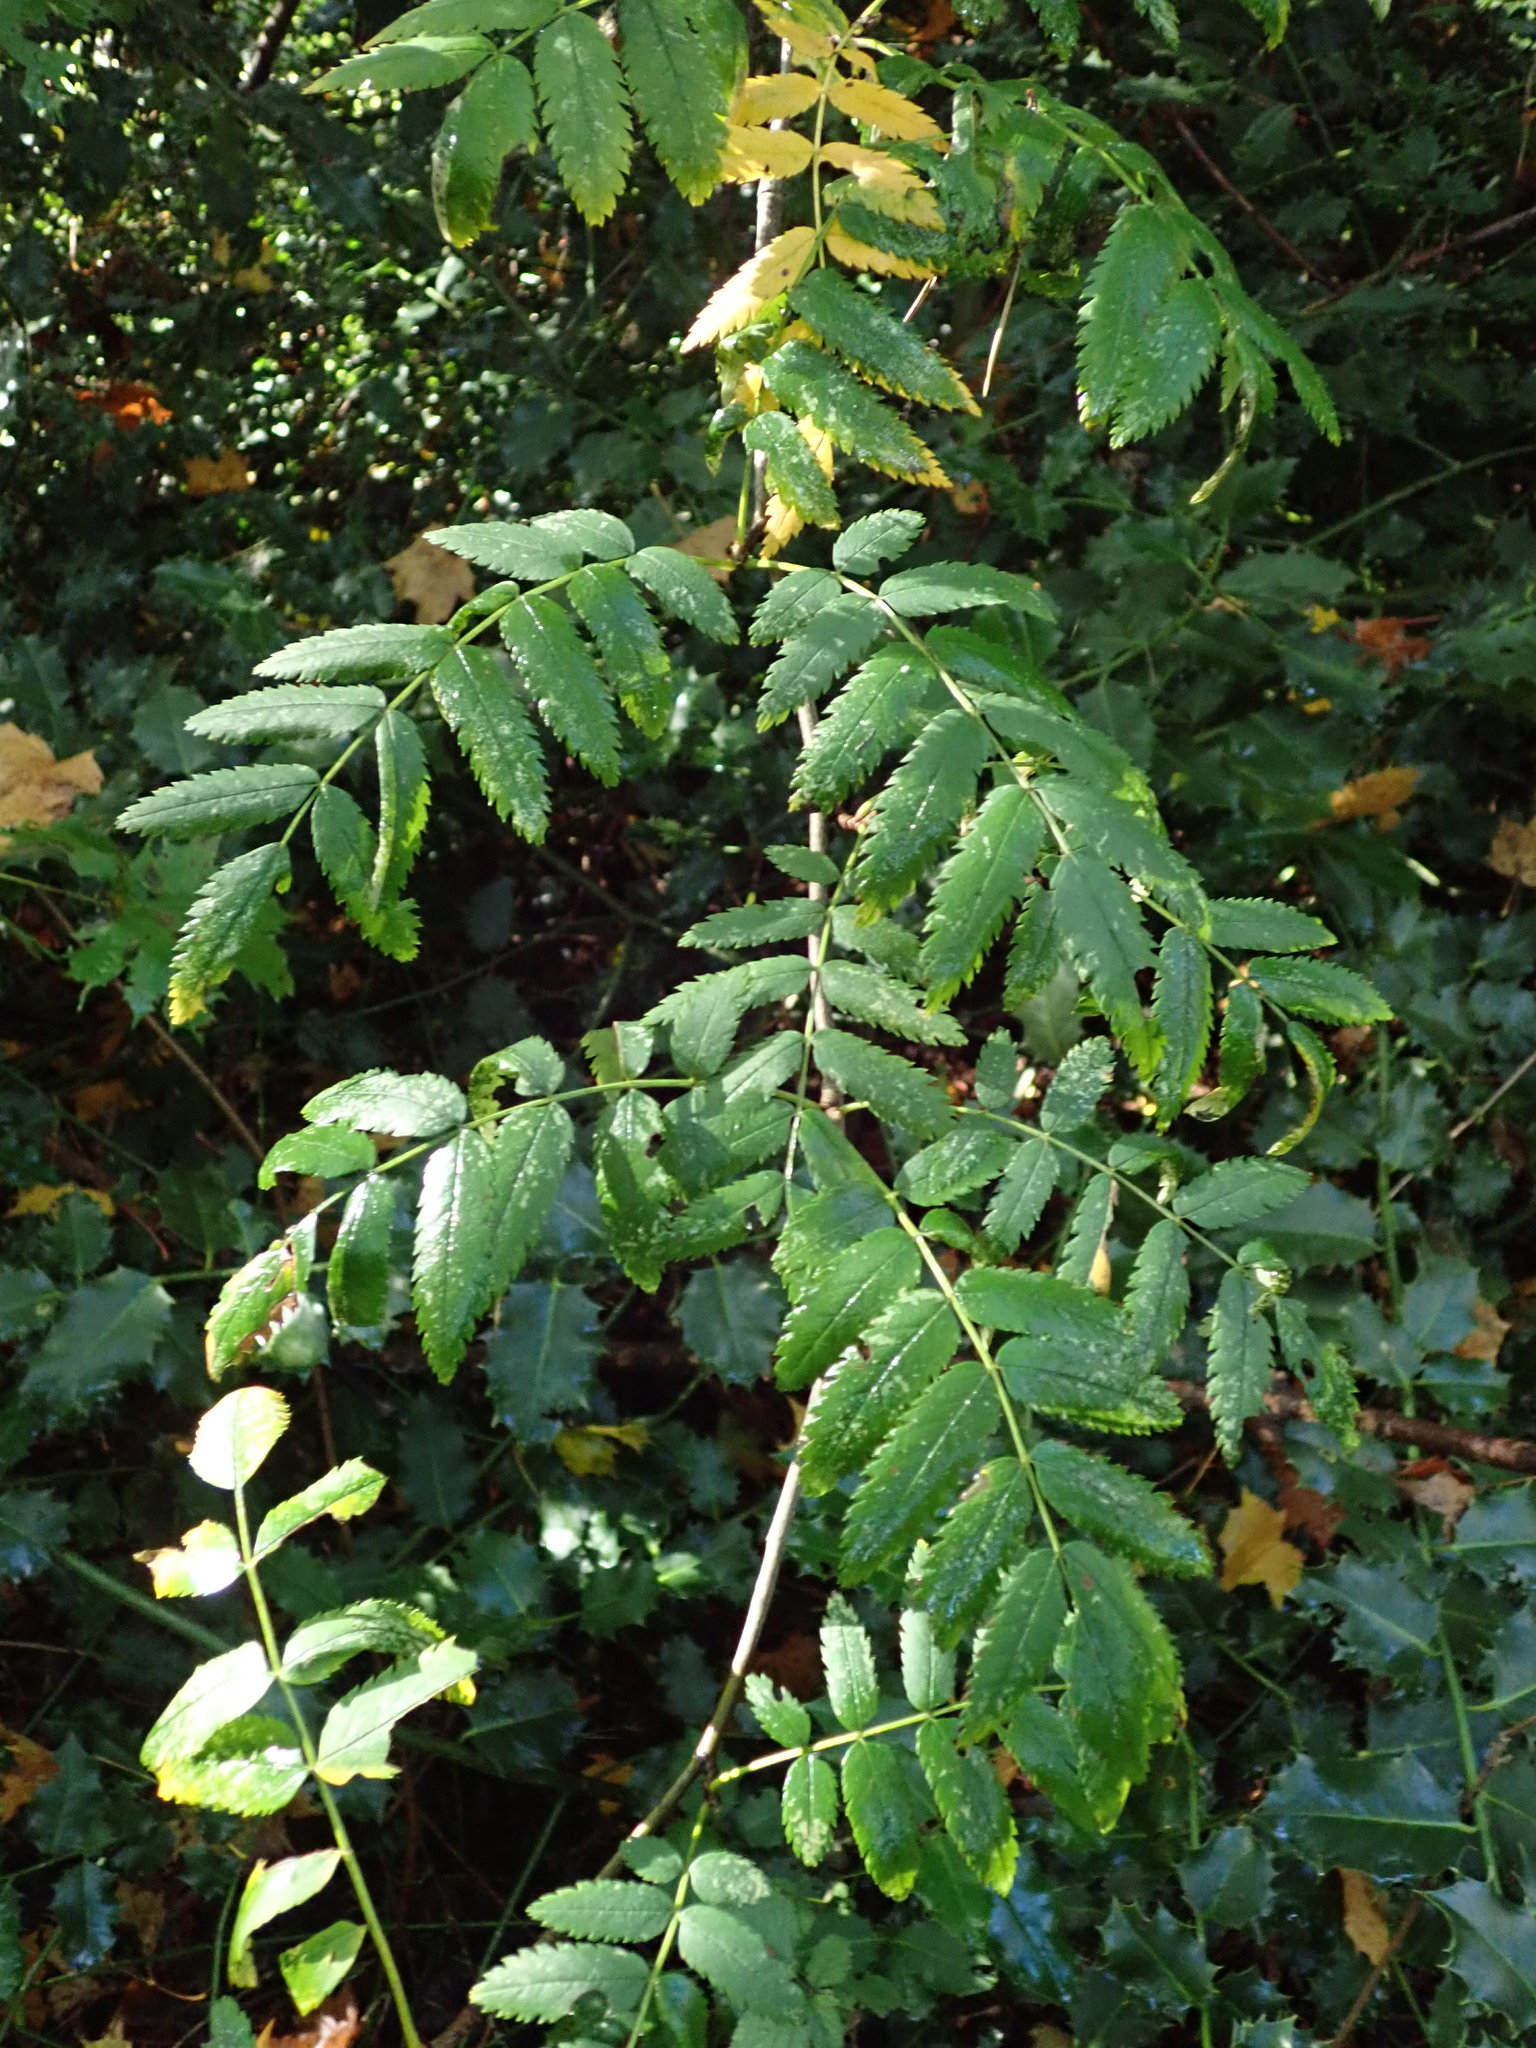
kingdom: Plantae
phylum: Tracheophyta
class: Magnoliopsida
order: Rosales
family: Rosaceae
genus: Sorbus
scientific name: Sorbus aucuparia
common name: Rowan
